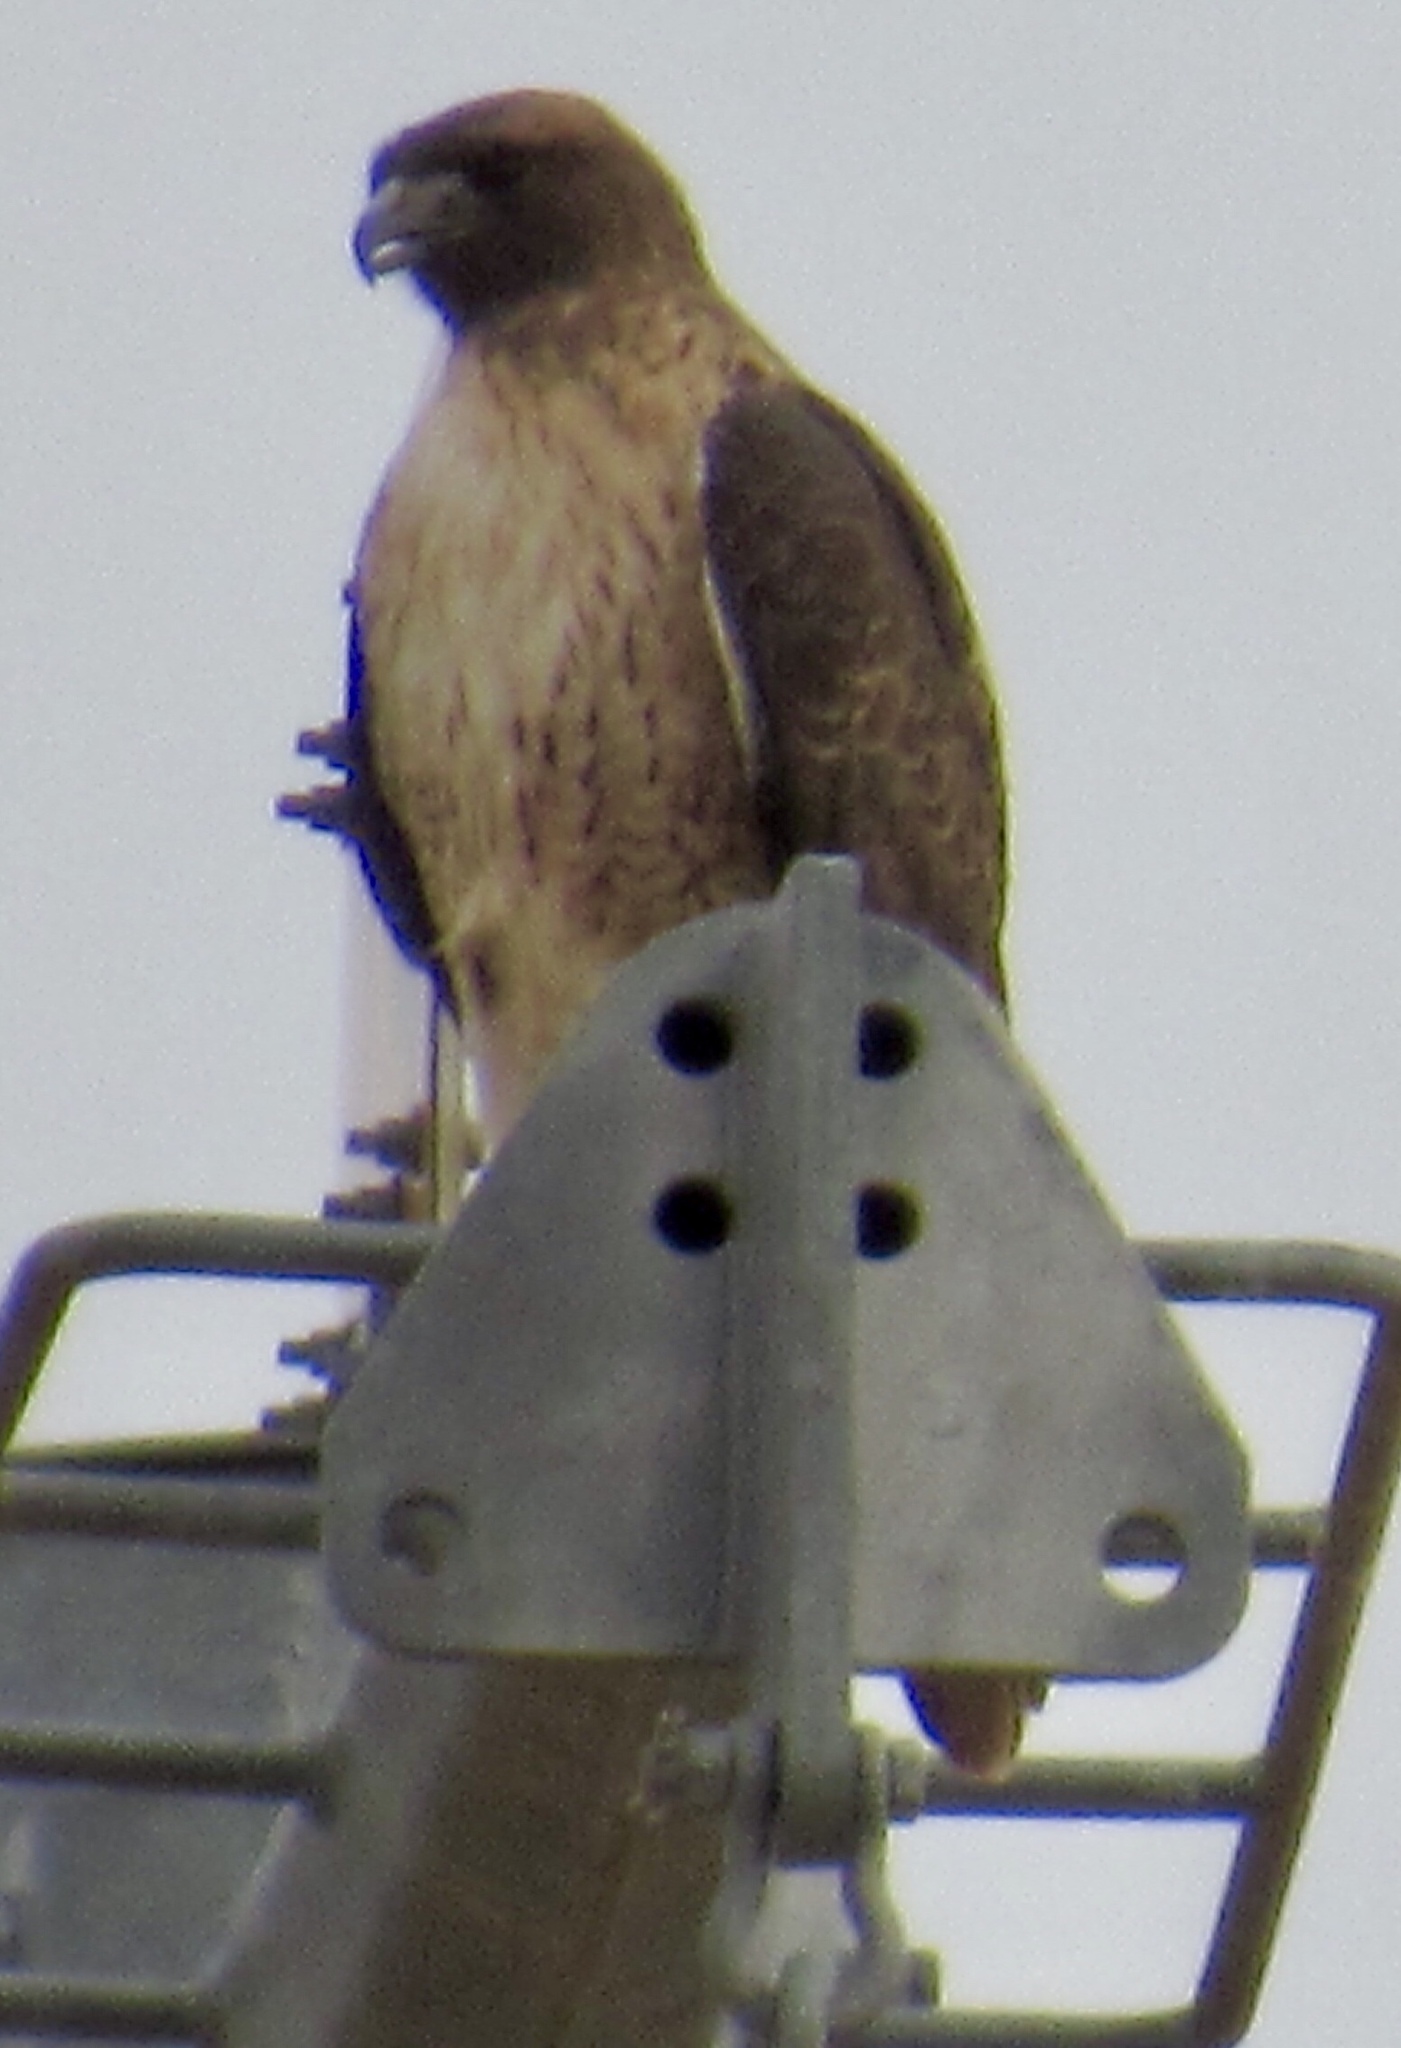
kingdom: Animalia
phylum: Chordata
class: Aves
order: Accipitriformes
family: Accipitridae
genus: Buteo
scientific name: Buteo jamaicensis
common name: Red-tailed hawk
